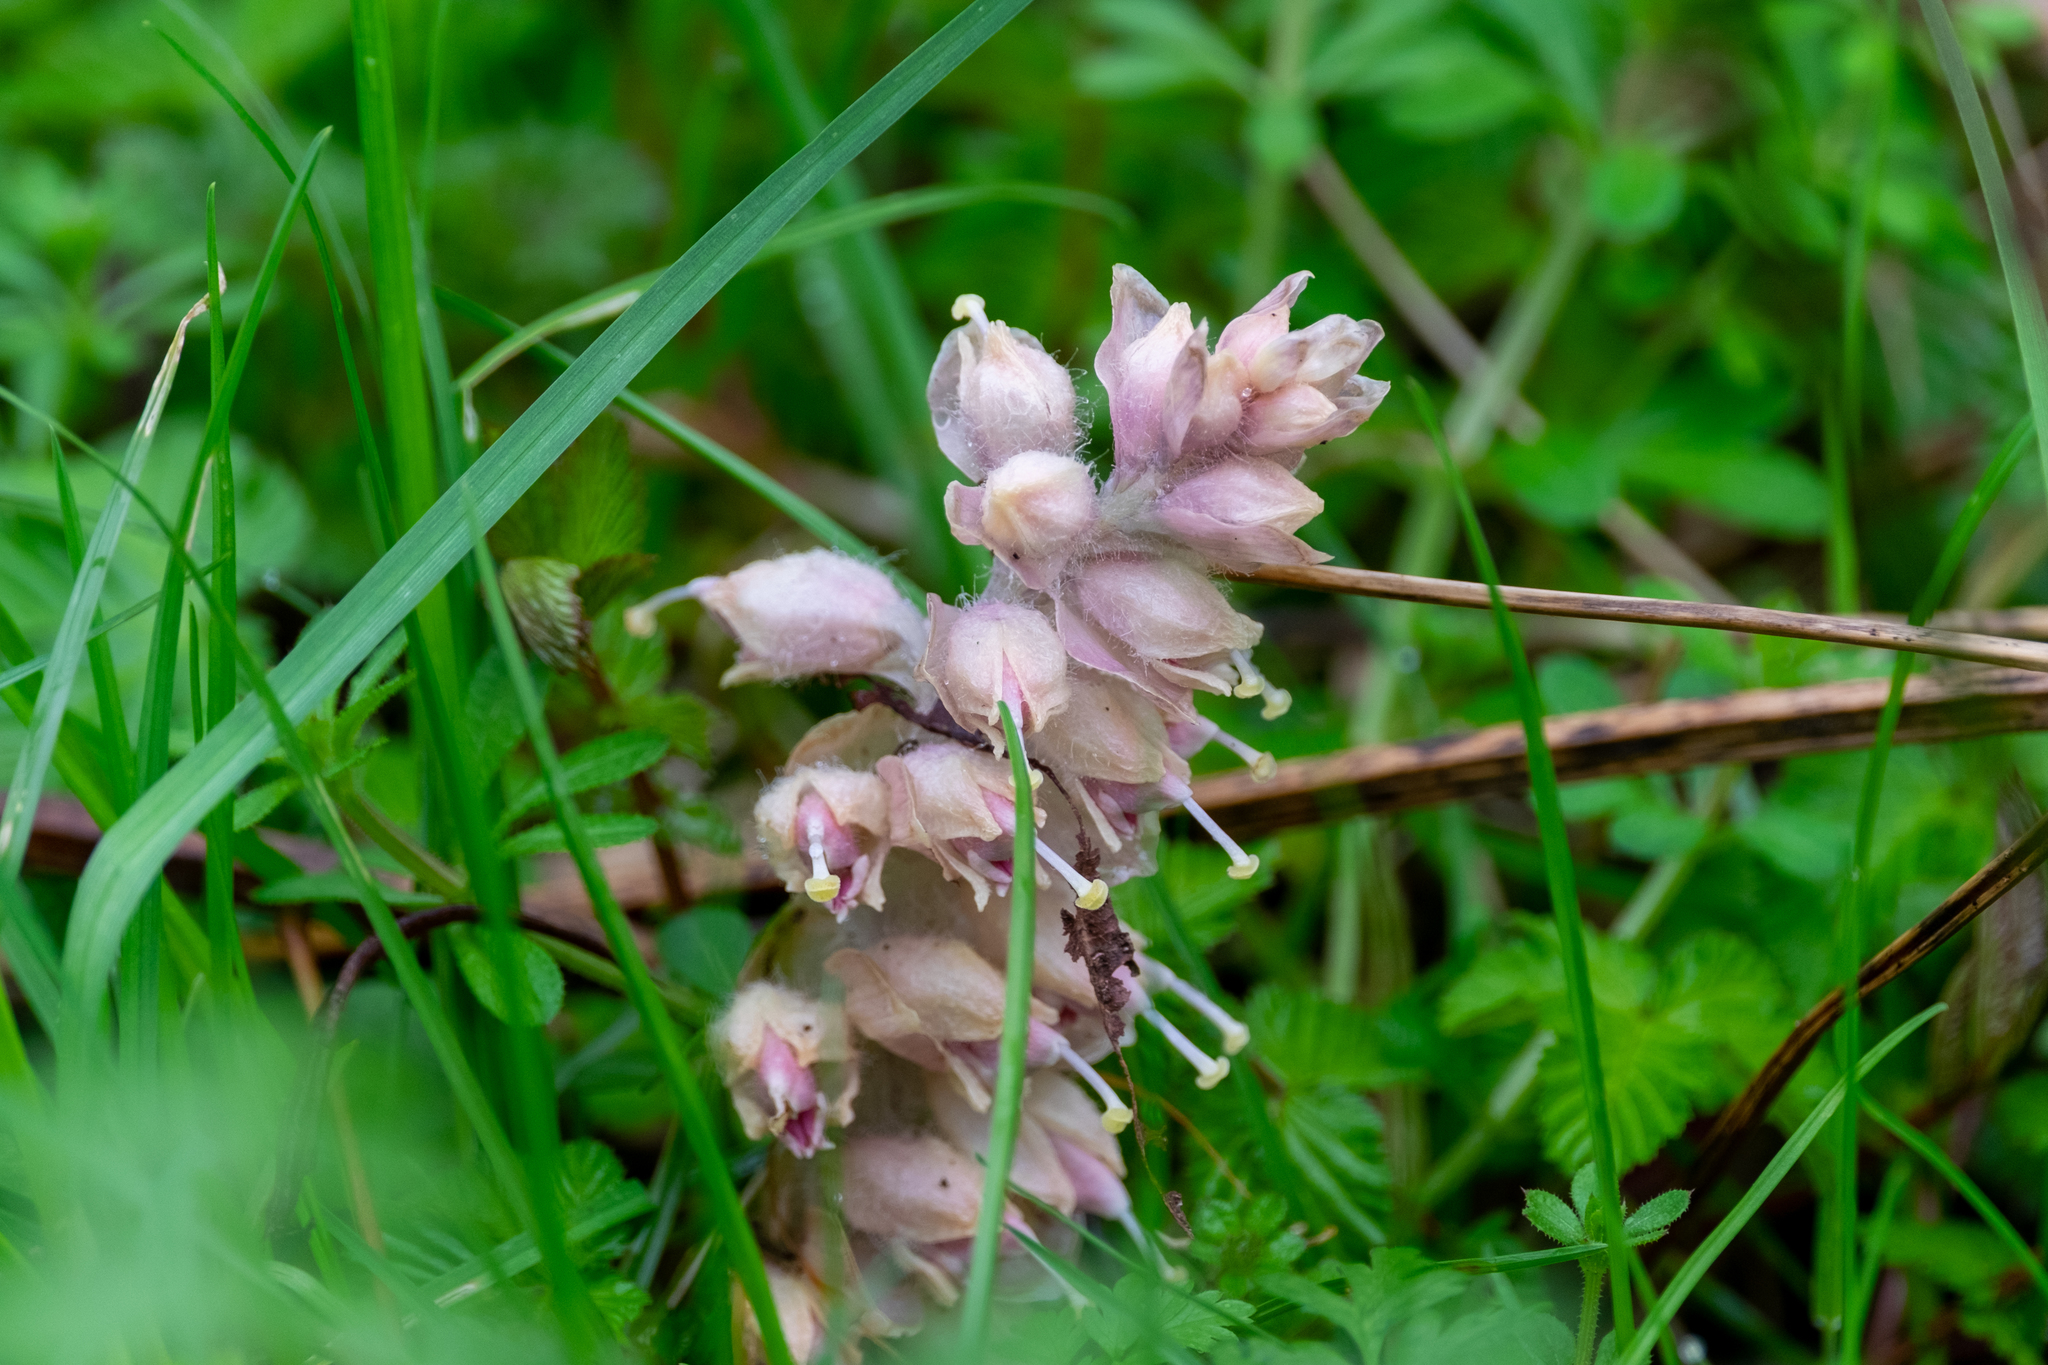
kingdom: Plantae
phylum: Tracheophyta
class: Magnoliopsida
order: Lamiales
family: Orobanchaceae
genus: Lathraea
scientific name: Lathraea squamaria
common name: Toothwort
